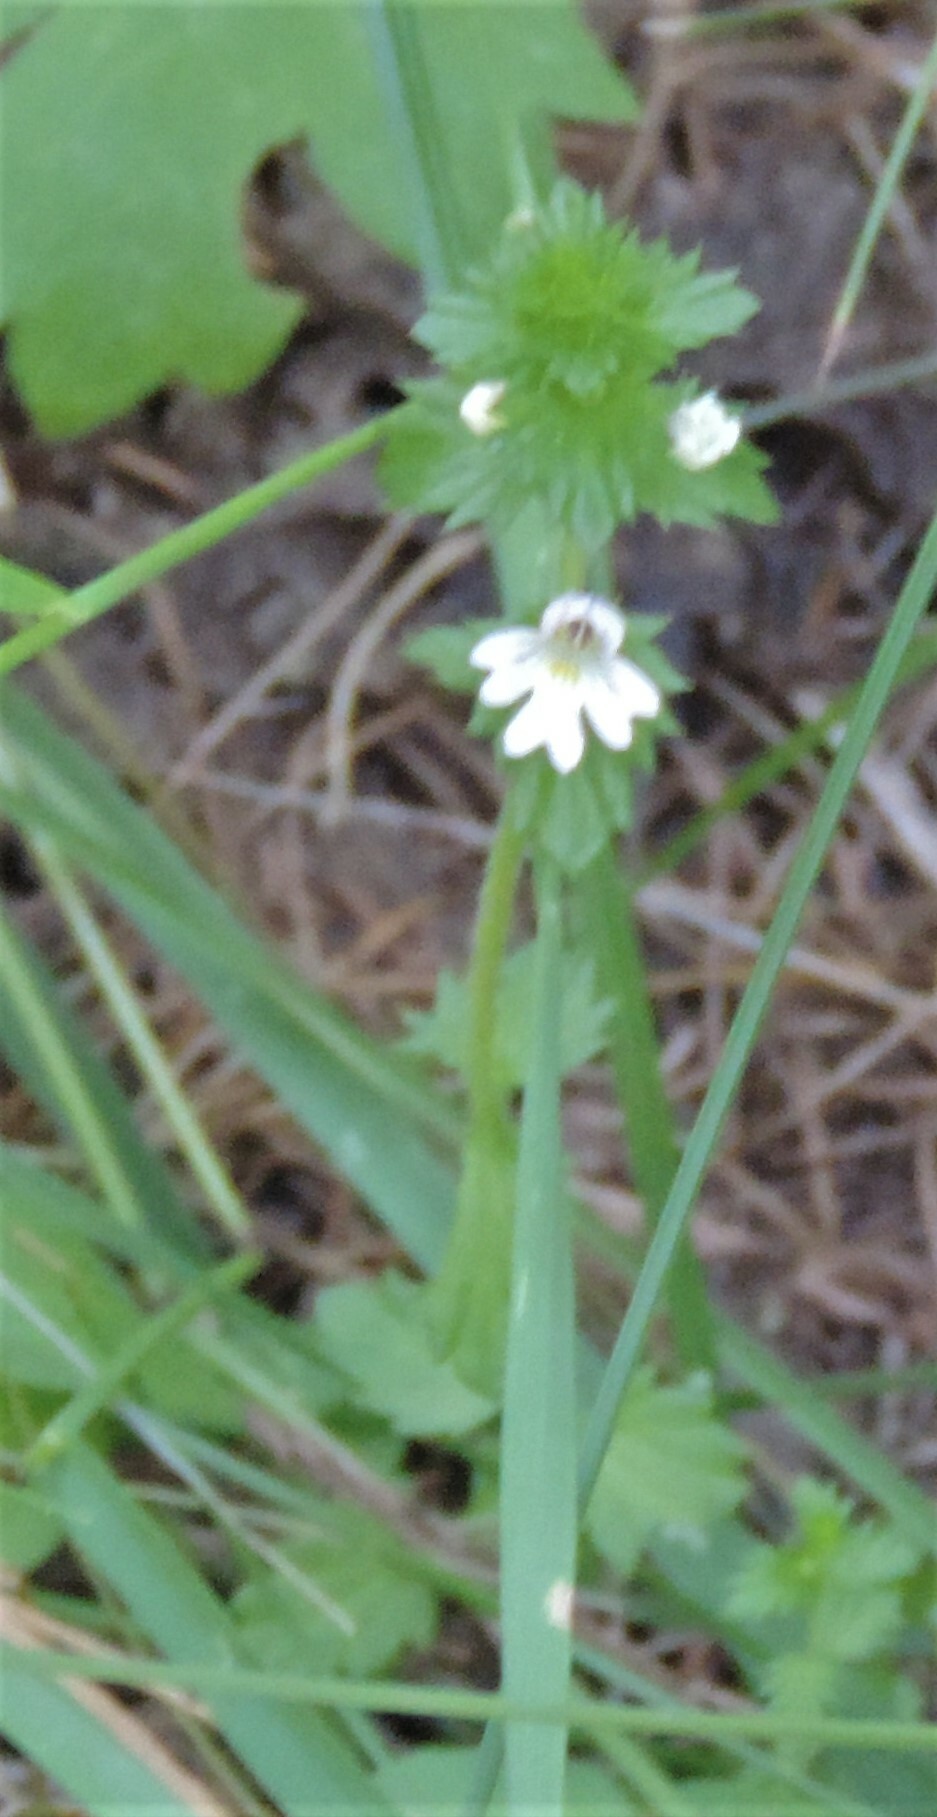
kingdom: Plantae
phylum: Tracheophyta
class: Magnoliopsida
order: Lamiales
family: Orobanchaceae
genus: Euphrasia
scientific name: Euphrasia nemorosa
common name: Common eyebright
